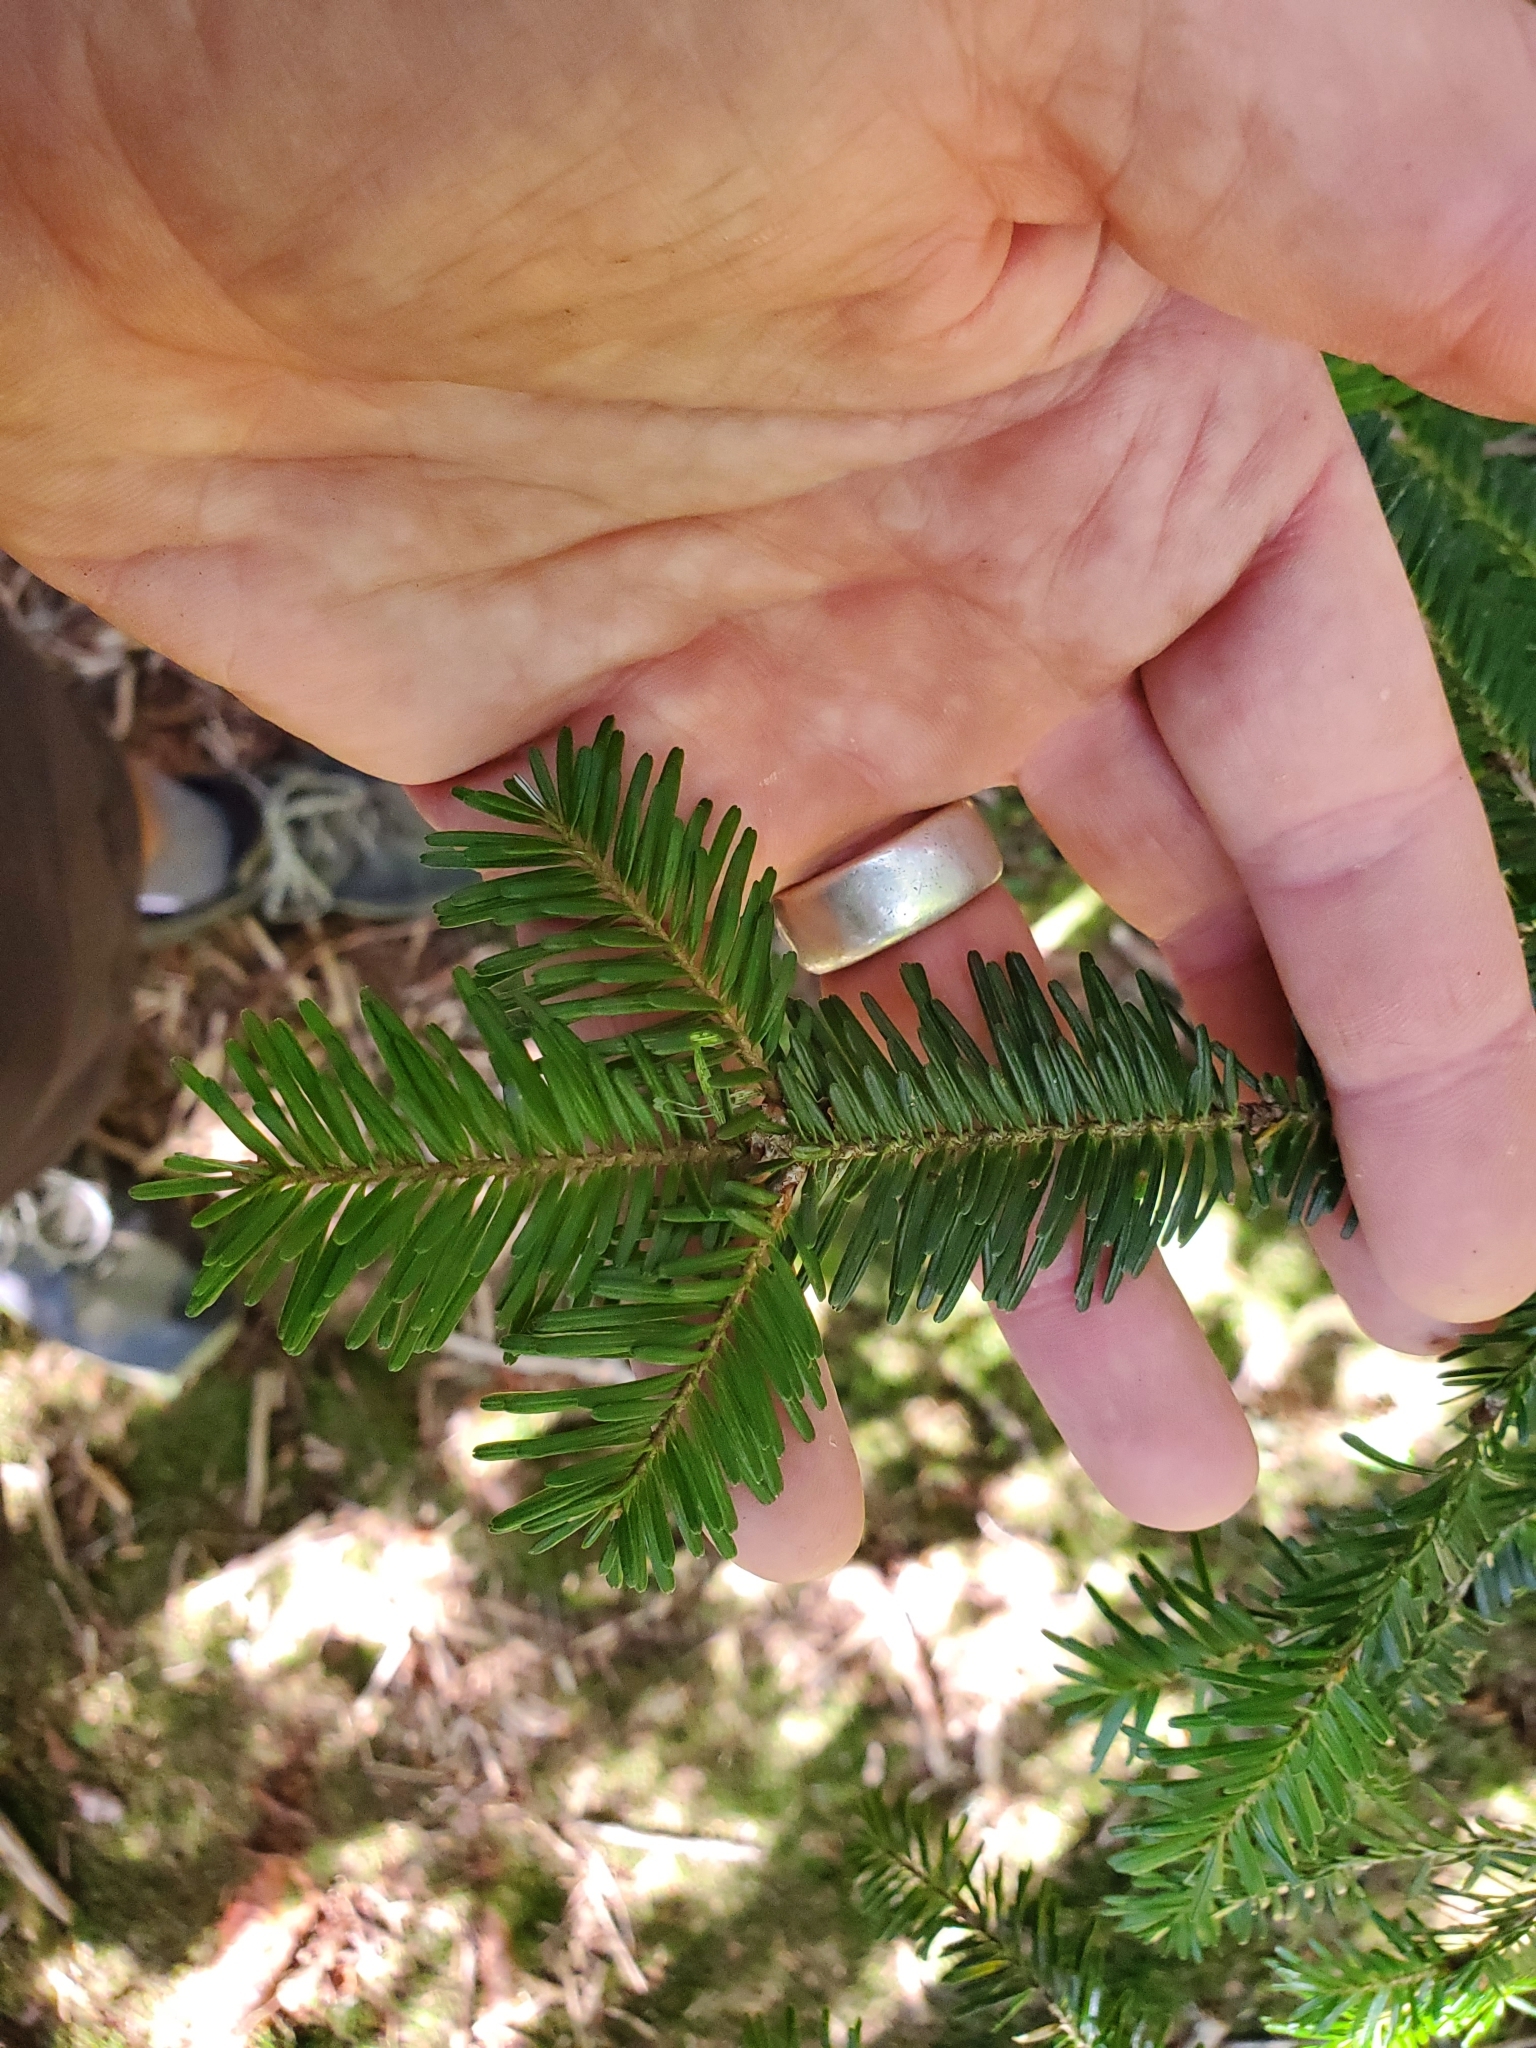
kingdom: Plantae
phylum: Tracheophyta
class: Pinopsida
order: Pinales
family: Pinaceae
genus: Abies
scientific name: Abies fraseri
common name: Fraser fir
